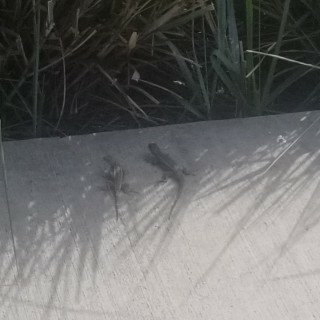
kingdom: Animalia
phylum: Chordata
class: Squamata
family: Phrynosomatidae
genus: Sceloporus
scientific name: Sceloporus occidentalis
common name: Western fence lizard
